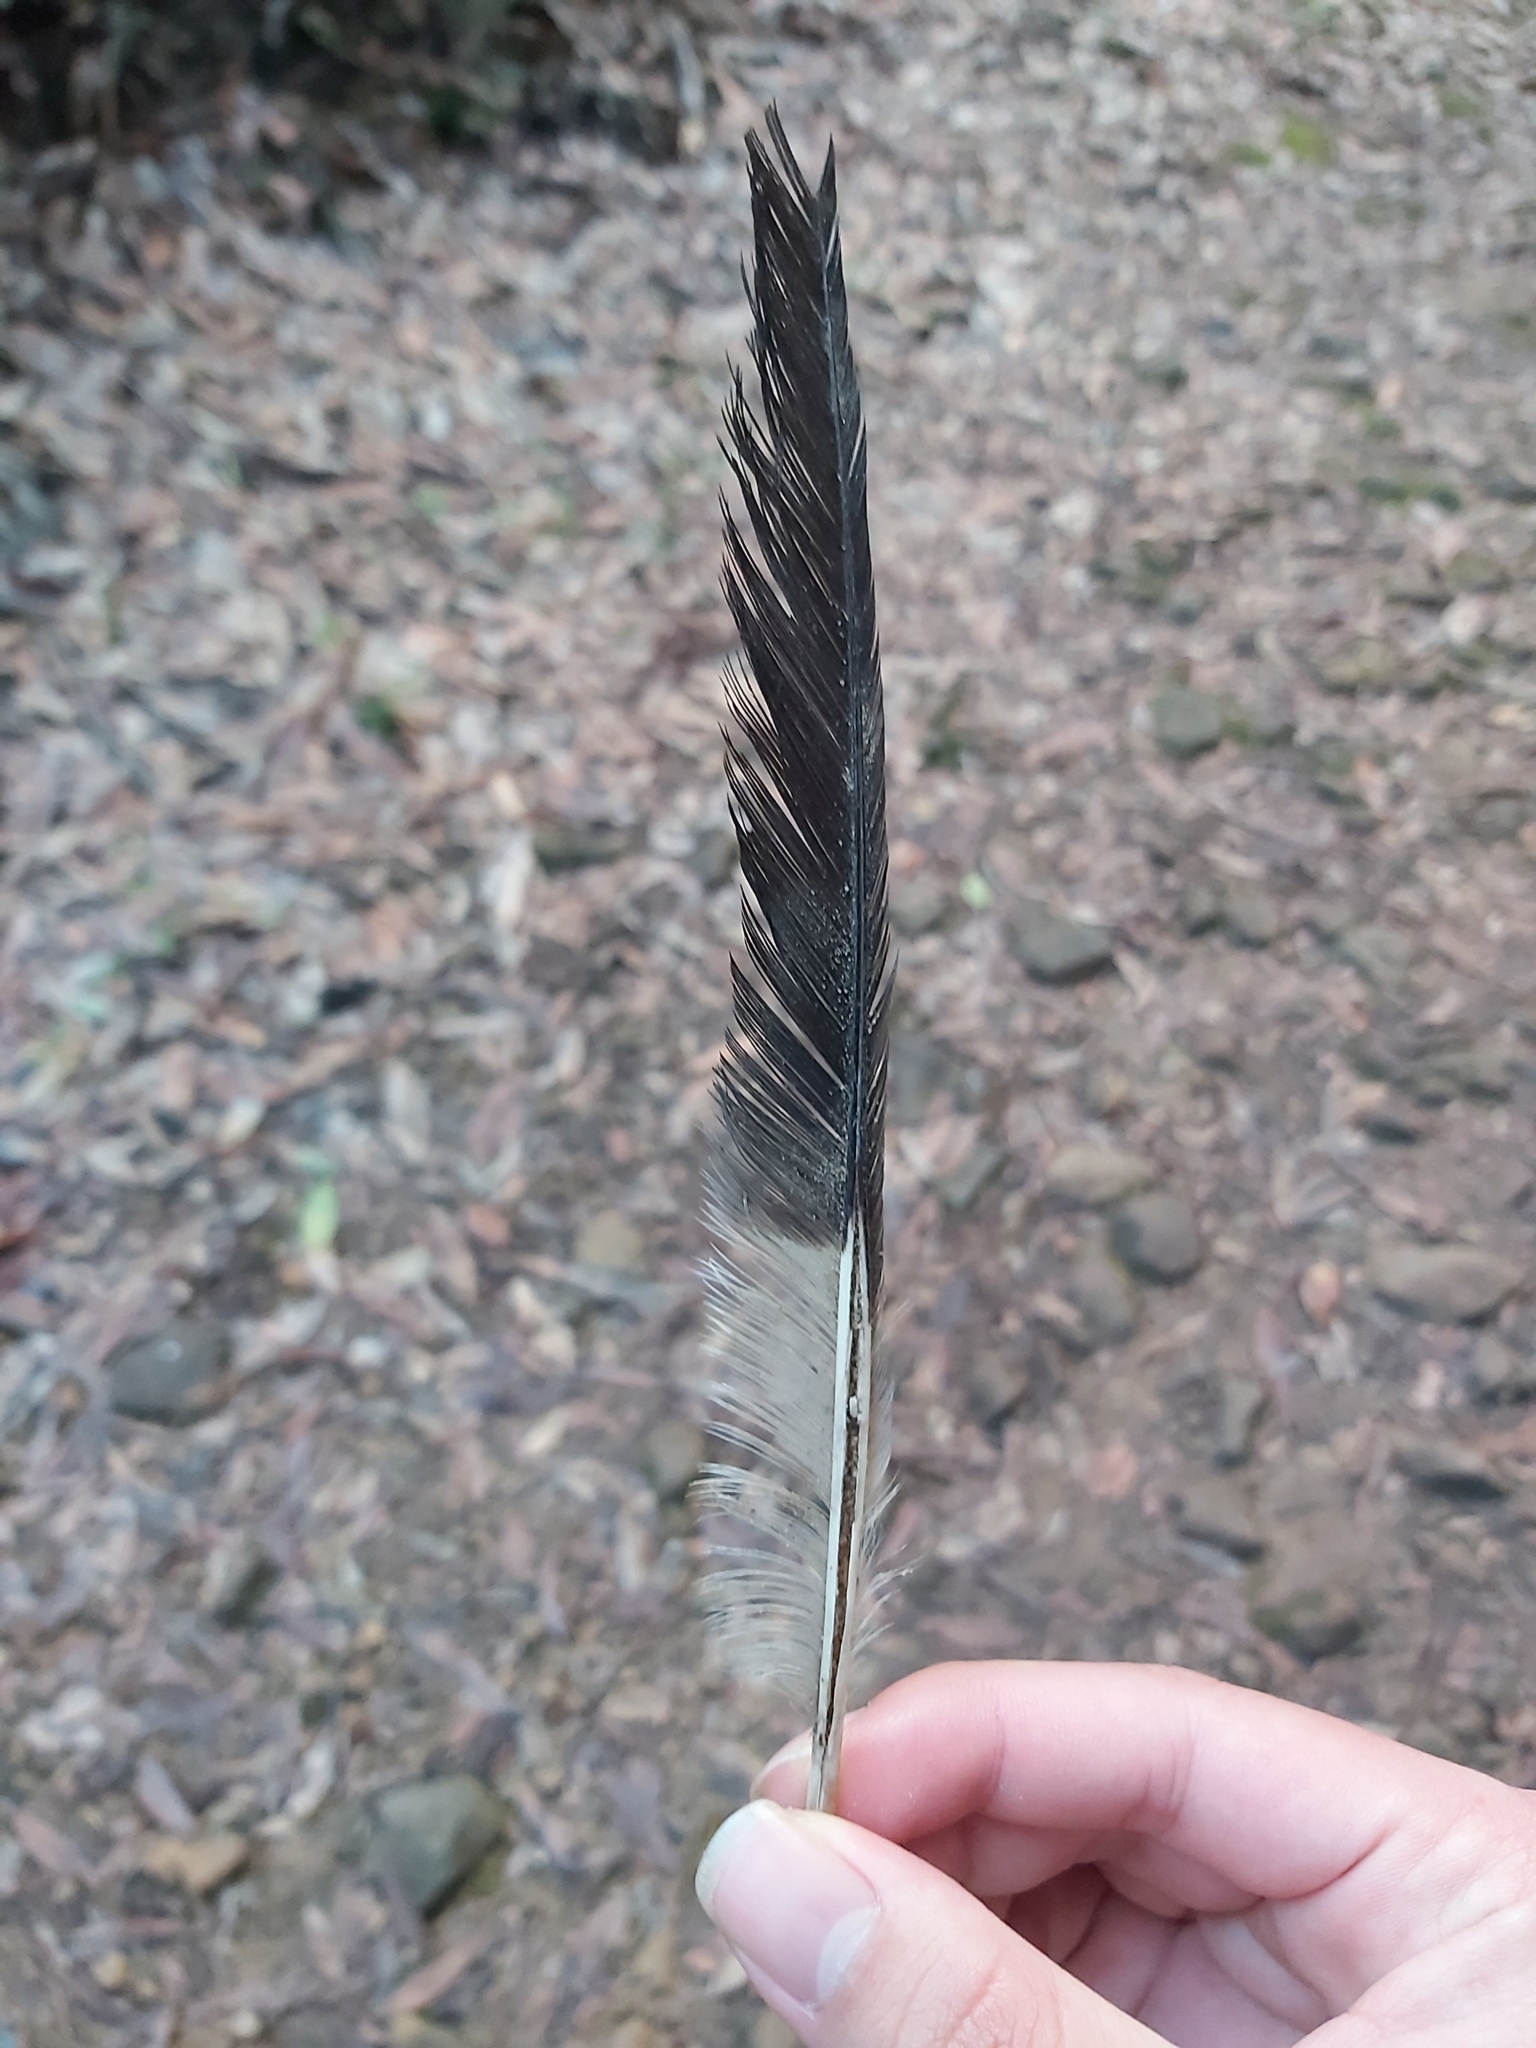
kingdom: Animalia
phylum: Chordata
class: Aves
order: Passeriformes
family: Cracticidae
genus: Strepera
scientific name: Strepera graculina
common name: Pied currawong
